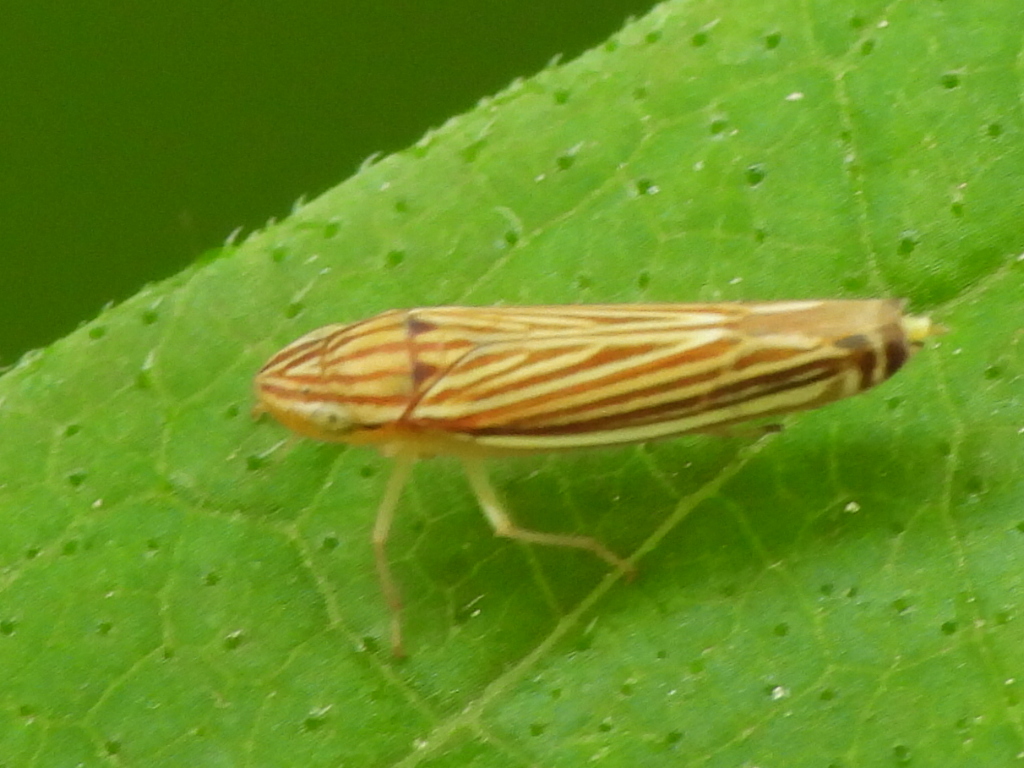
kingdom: Animalia
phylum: Arthropoda
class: Insecta
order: Hemiptera
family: Cicadellidae
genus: Sibovia
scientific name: Sibovia occatoria
